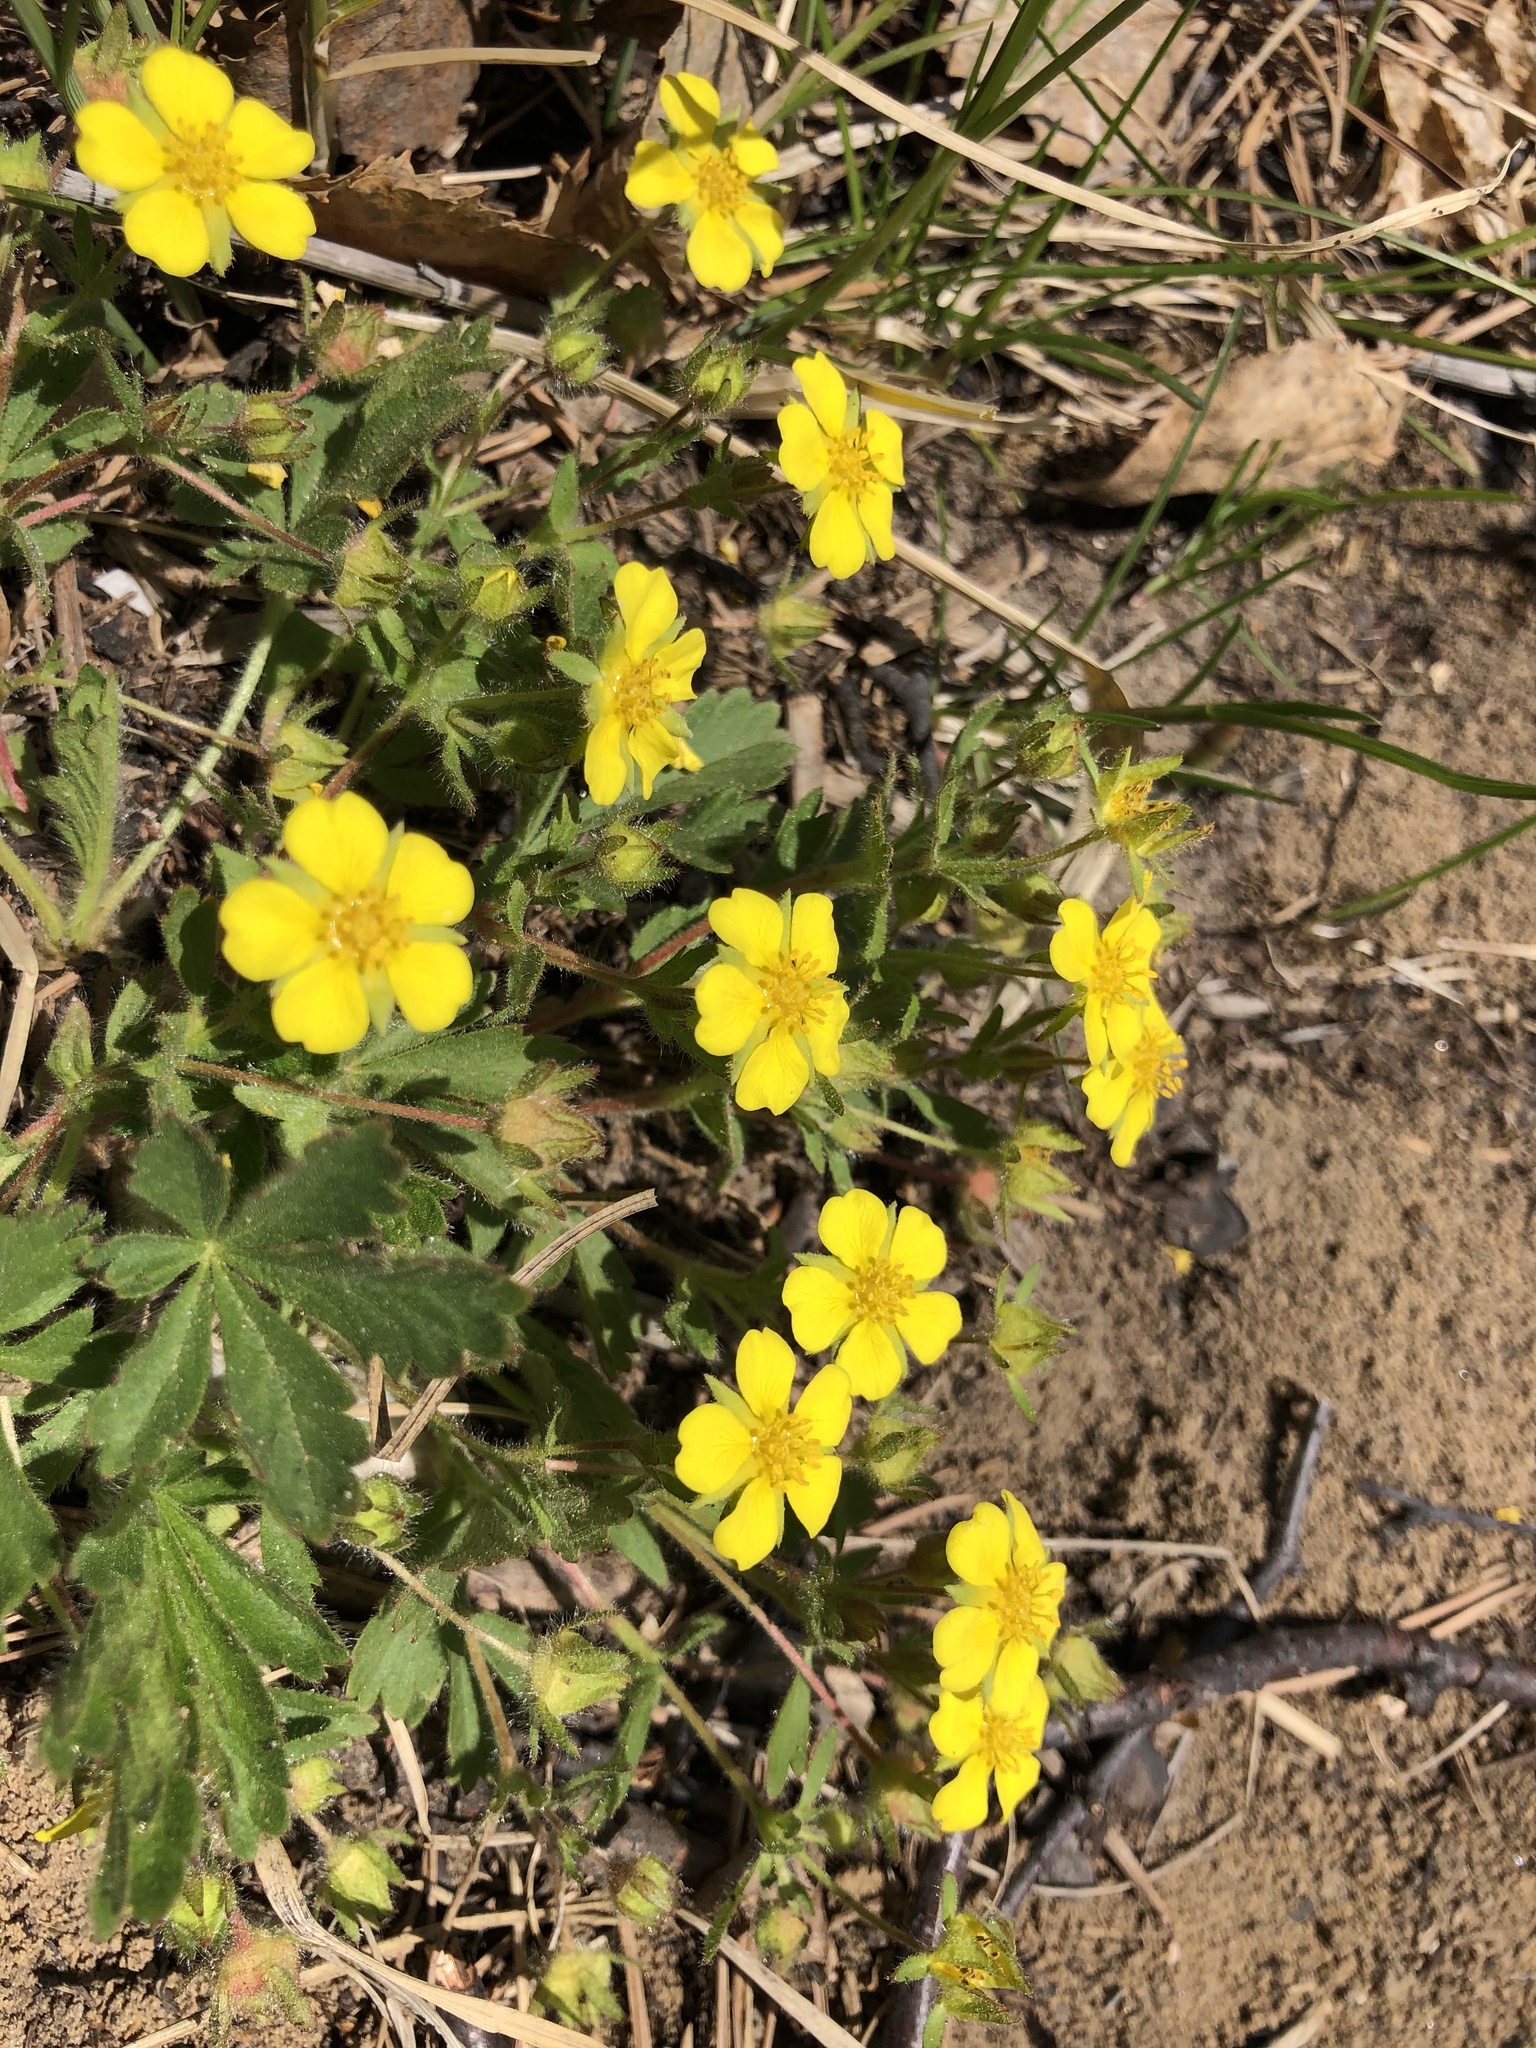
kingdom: Plantae
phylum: Tracheophyta
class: Magnoliopsida
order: Rosales
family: Rosaceae
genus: Potentilla
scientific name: Potentilla humifusa
